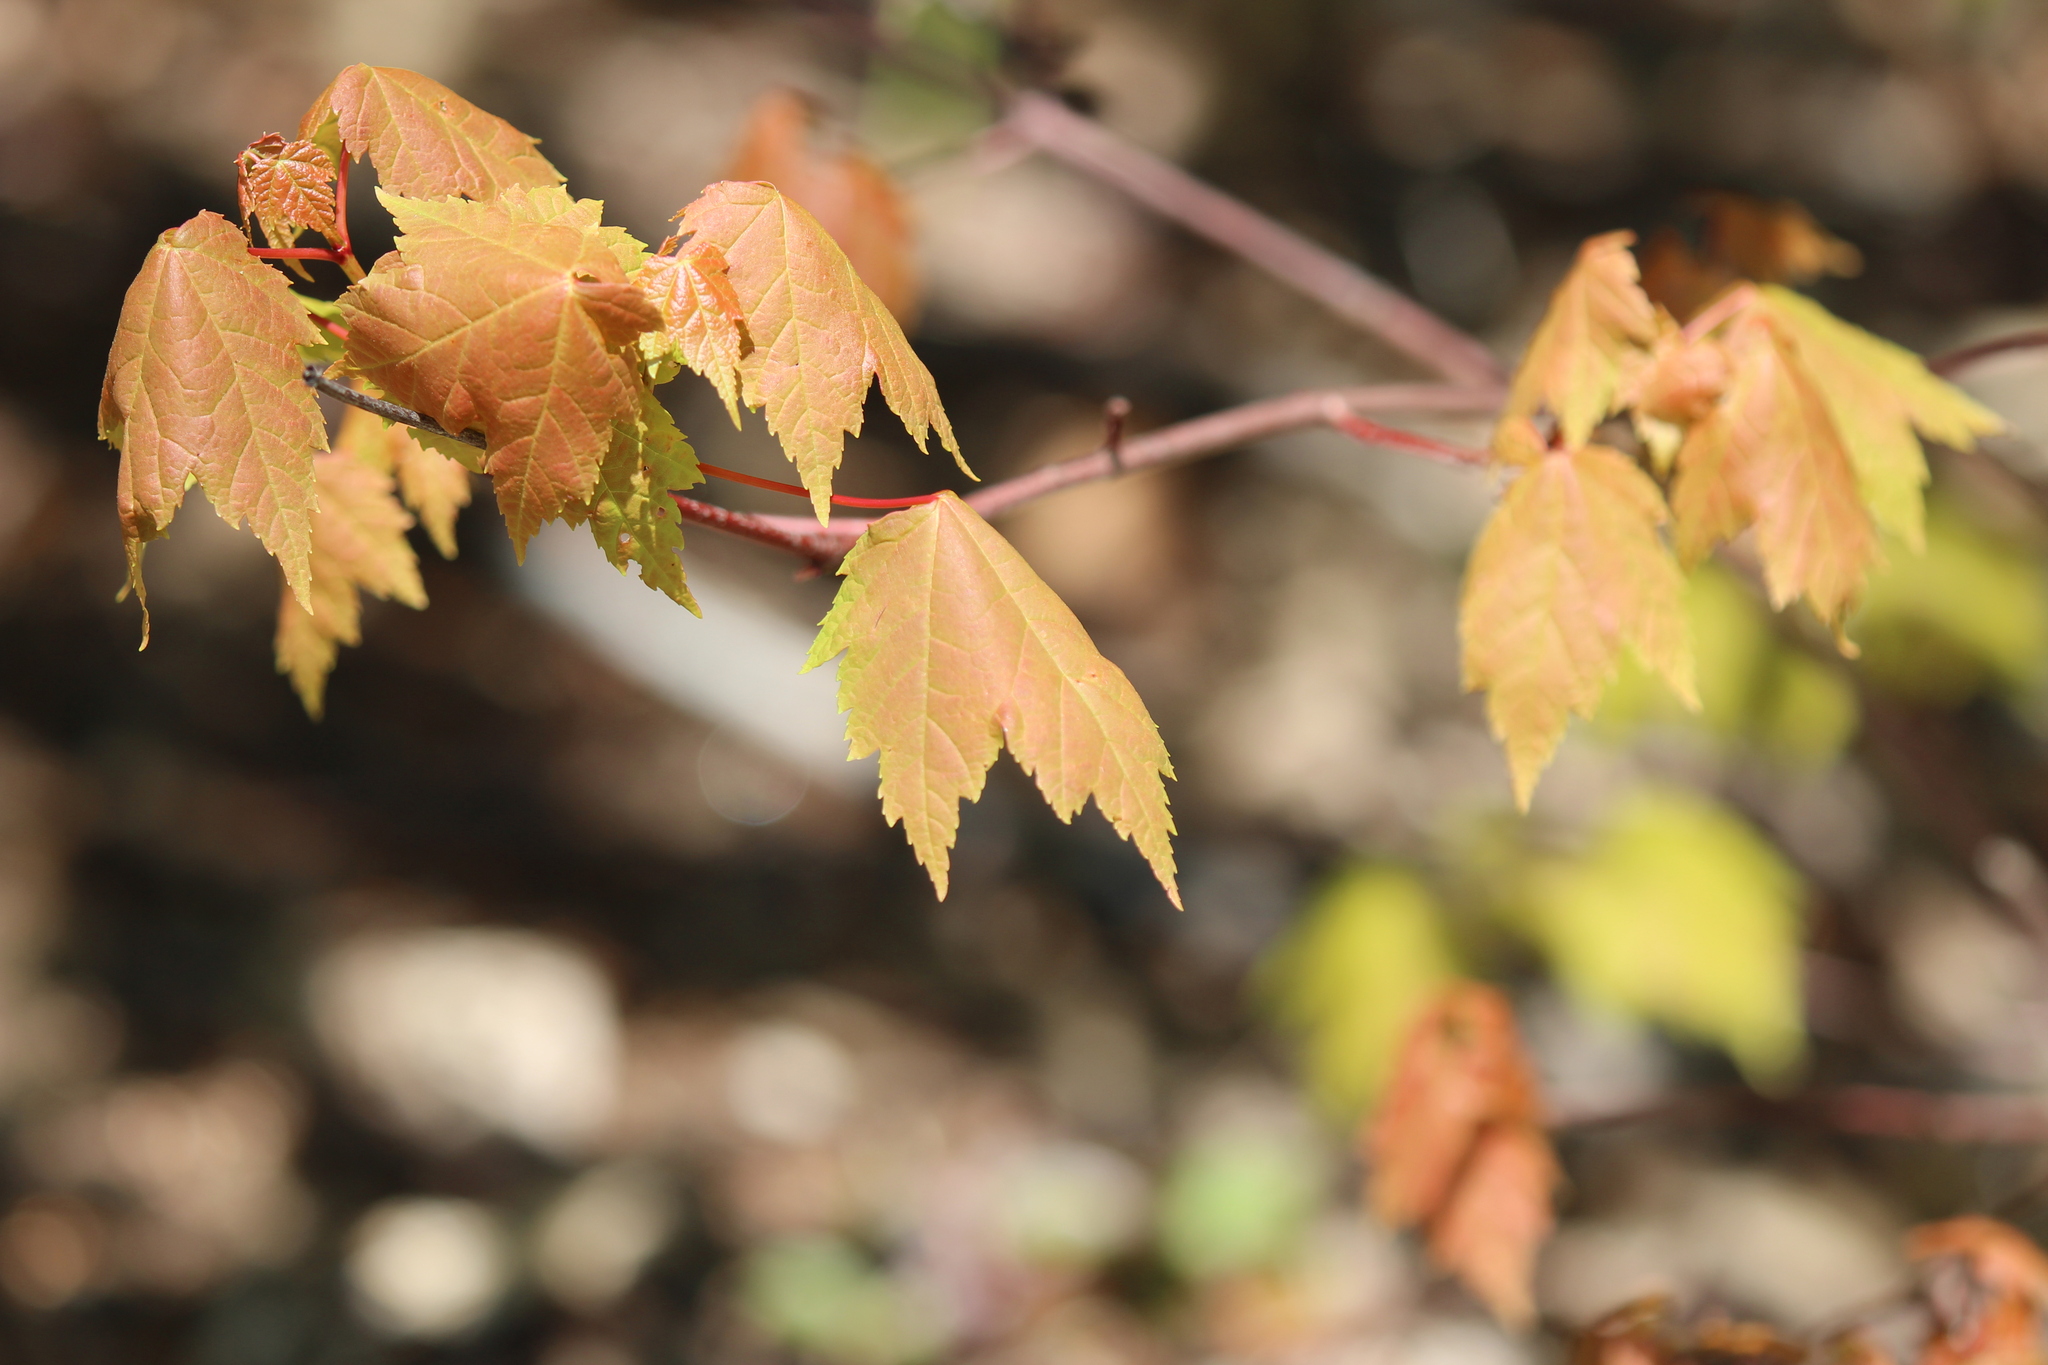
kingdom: Plantae
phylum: Tracheophyta
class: Magnoliopsida
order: Sapindales
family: Sapindaceae
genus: Acer
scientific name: Acer rubrum
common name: Red maple
